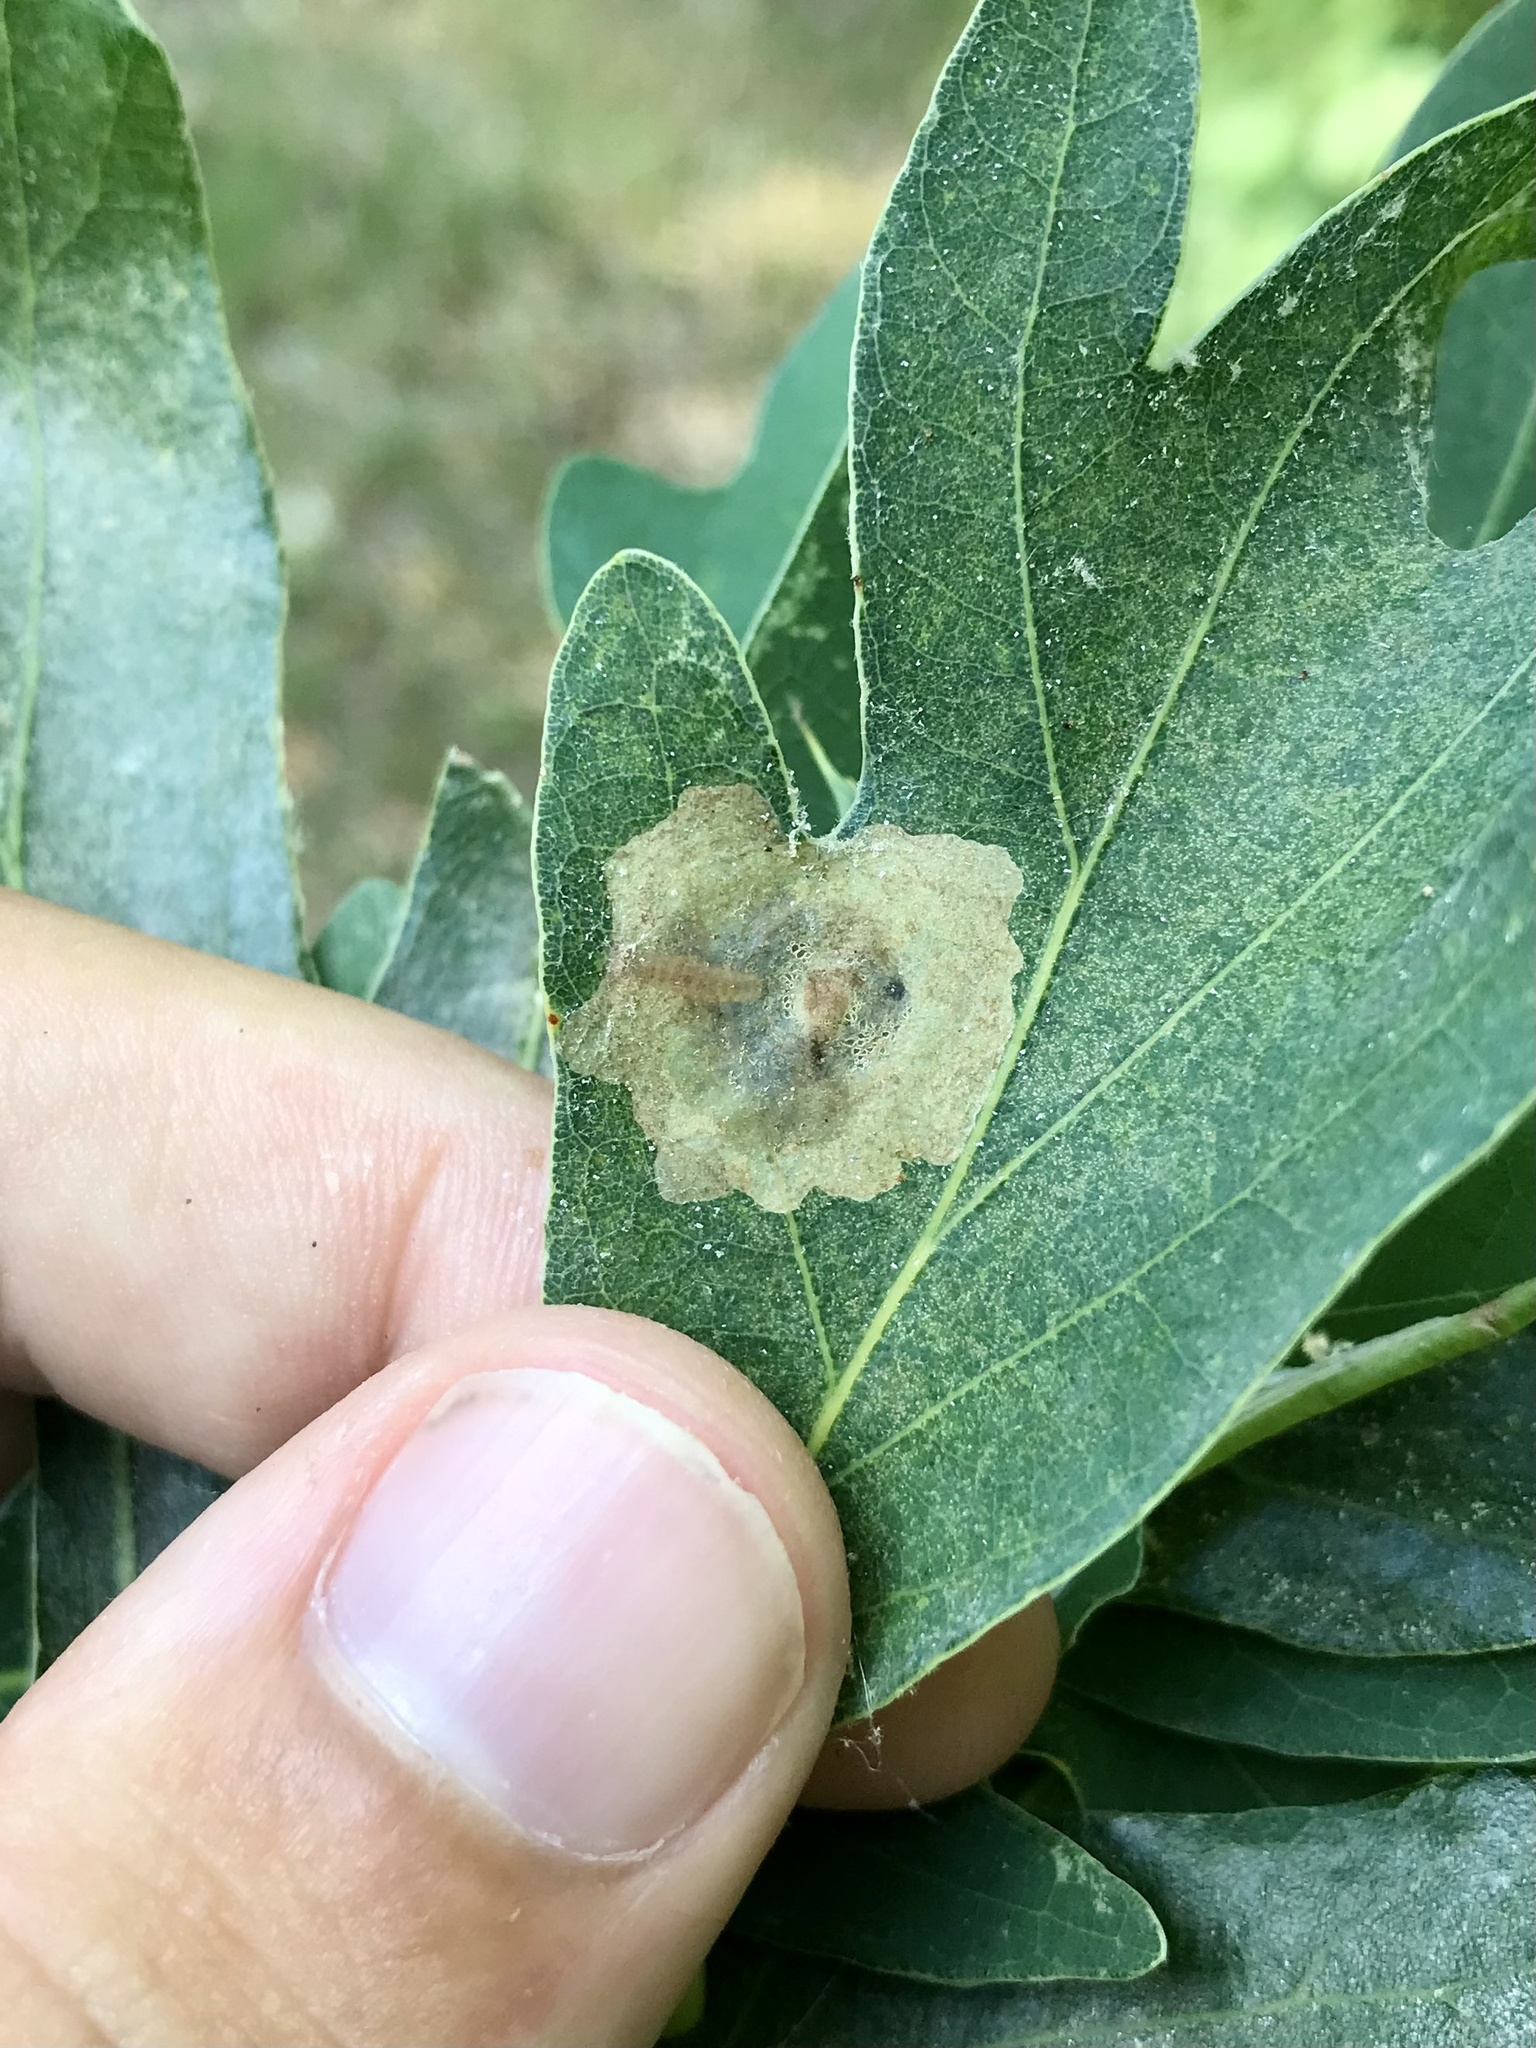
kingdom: Animalia
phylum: Arthropoda
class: Insecta
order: Lepidoptera
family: Gracillariidae
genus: Cameraria
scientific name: Cameraria macrocarpella
